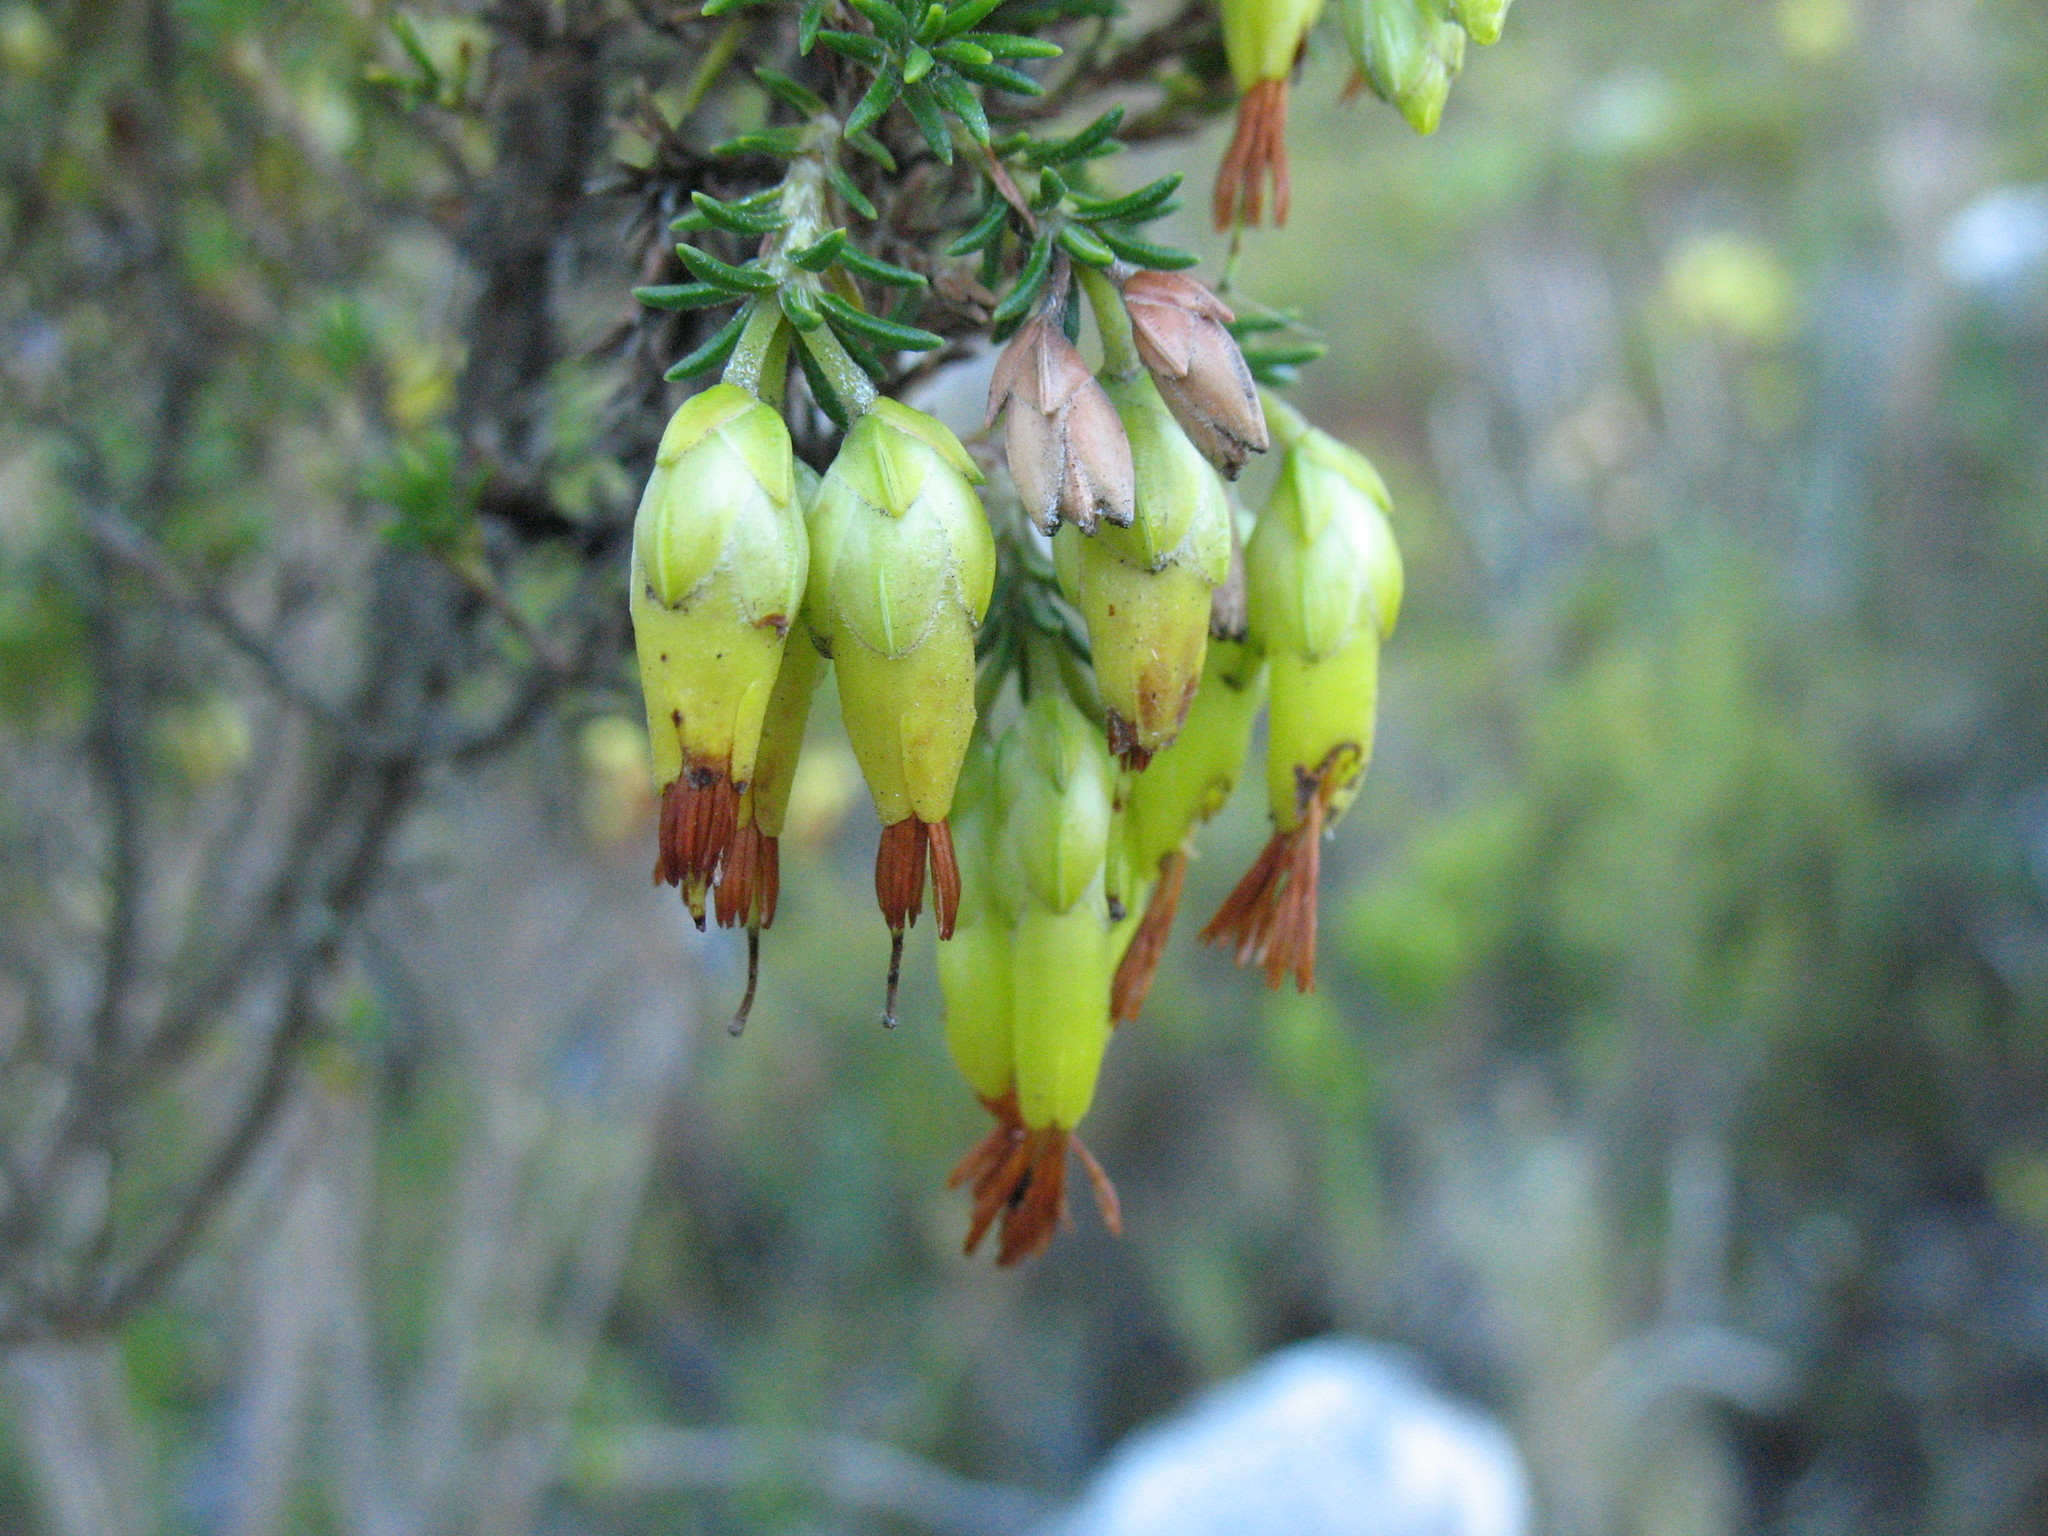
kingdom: Plantae
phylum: Tracheophyta
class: Magnoliopsida
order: Ericales
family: Ericaceae
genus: Erica
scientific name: Erica coccinea
